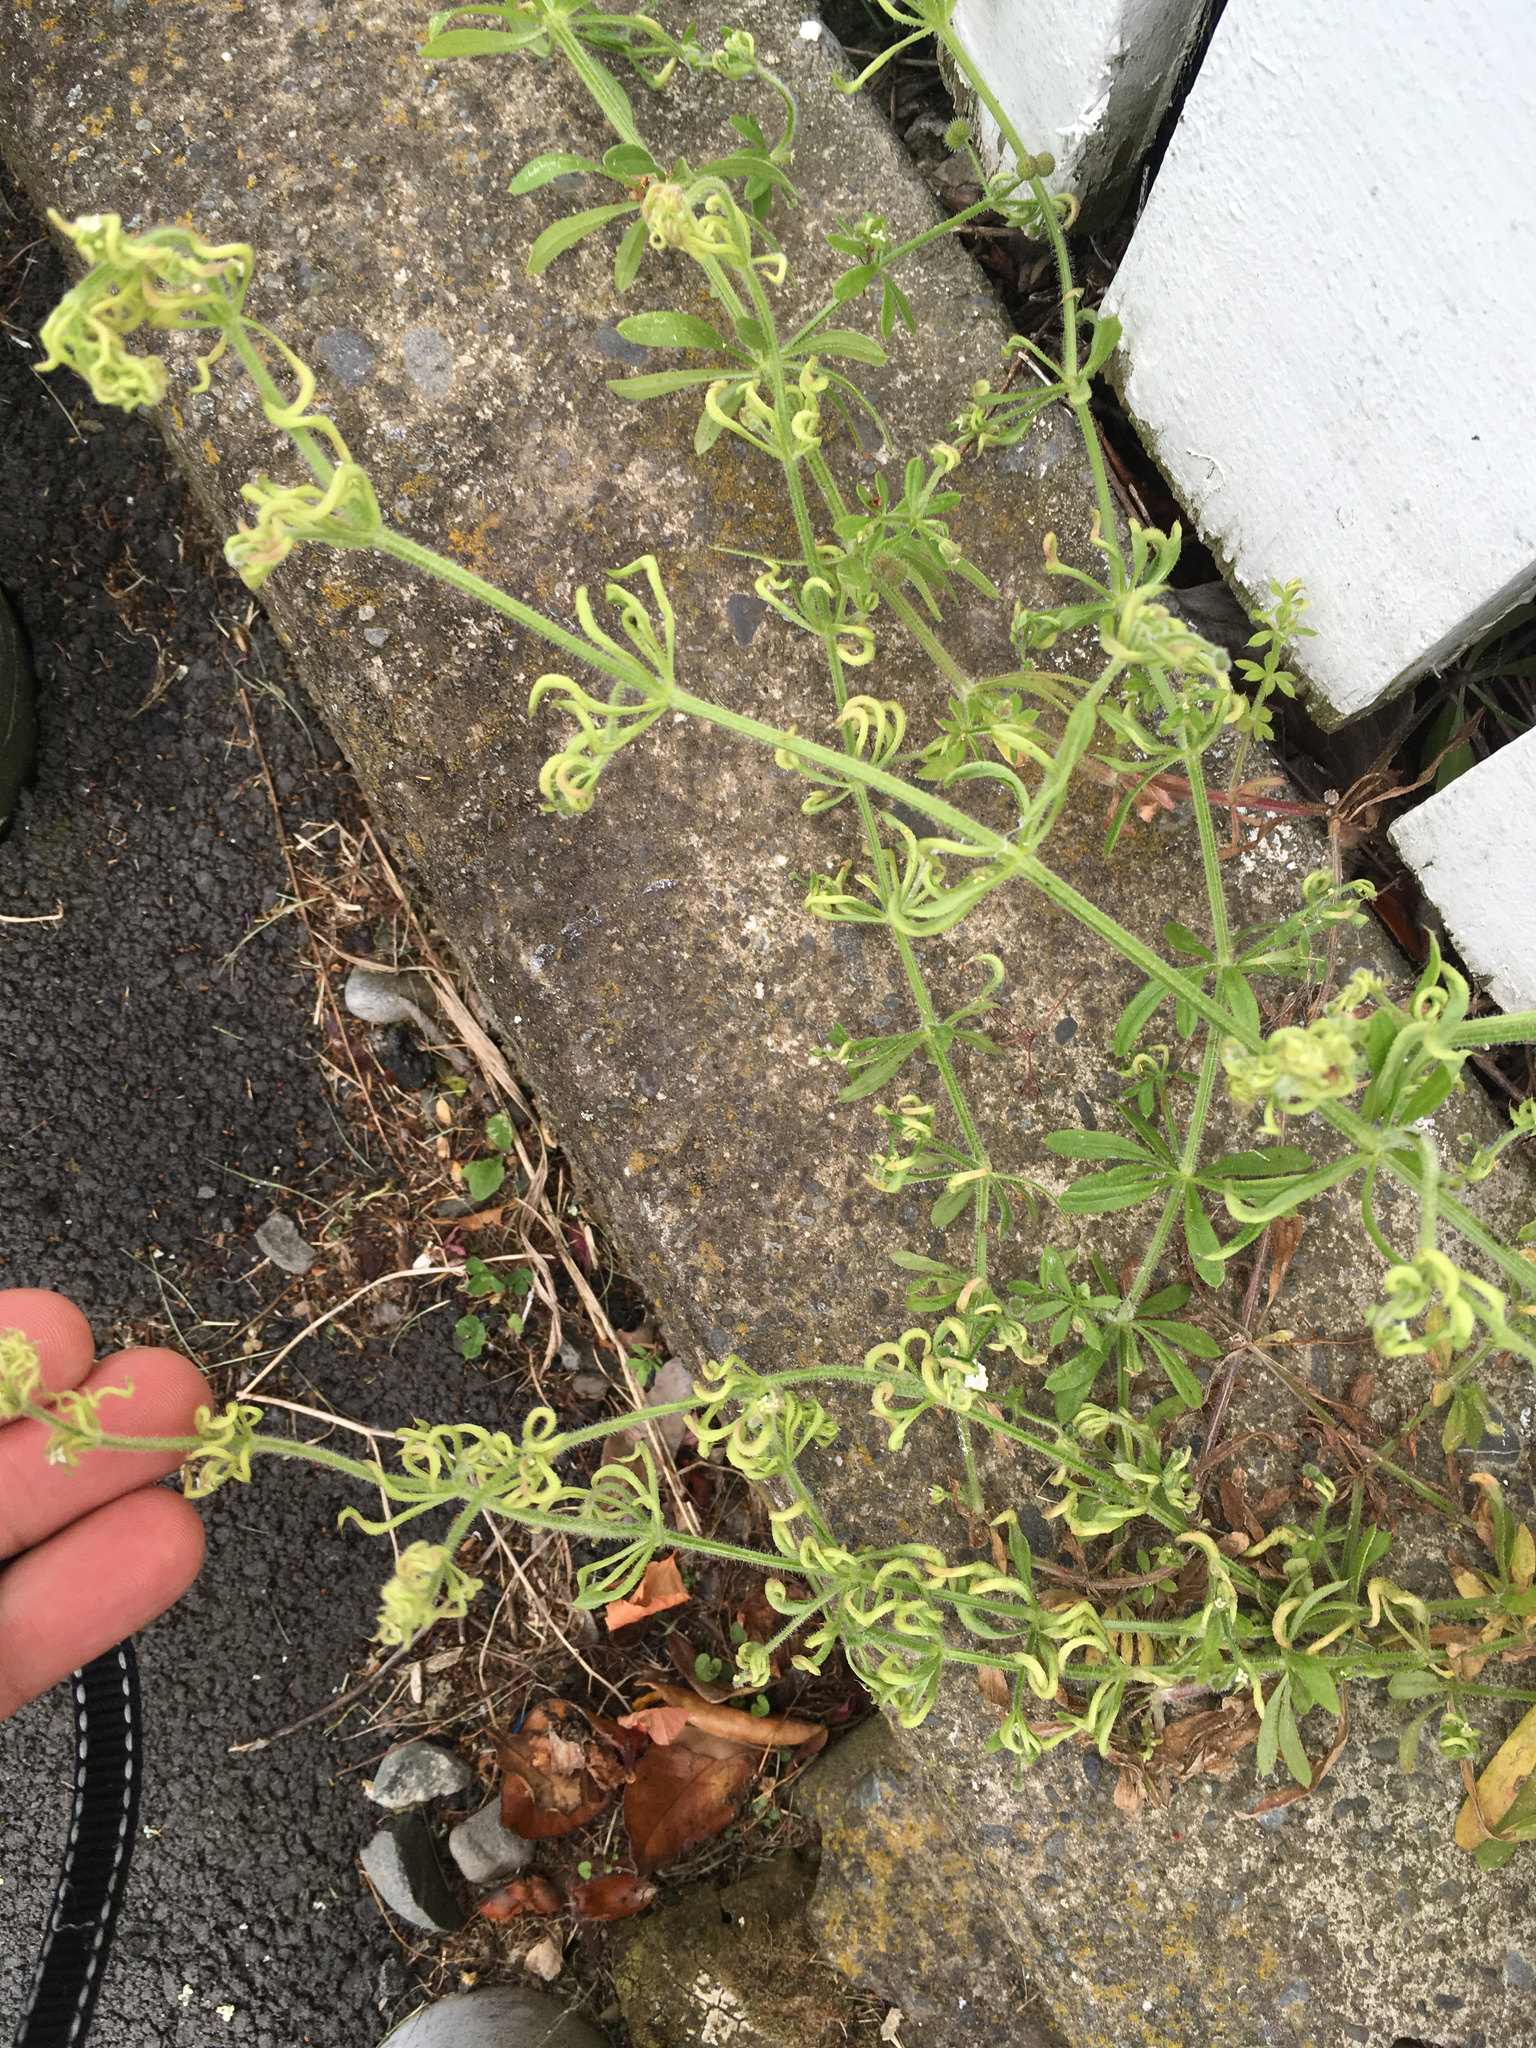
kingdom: Animalia
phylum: Arthropoda
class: Arachnida
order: Trombidiformes
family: Eriophyidae
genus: Cecidophyes
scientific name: Cecidophyes rouhollahi
